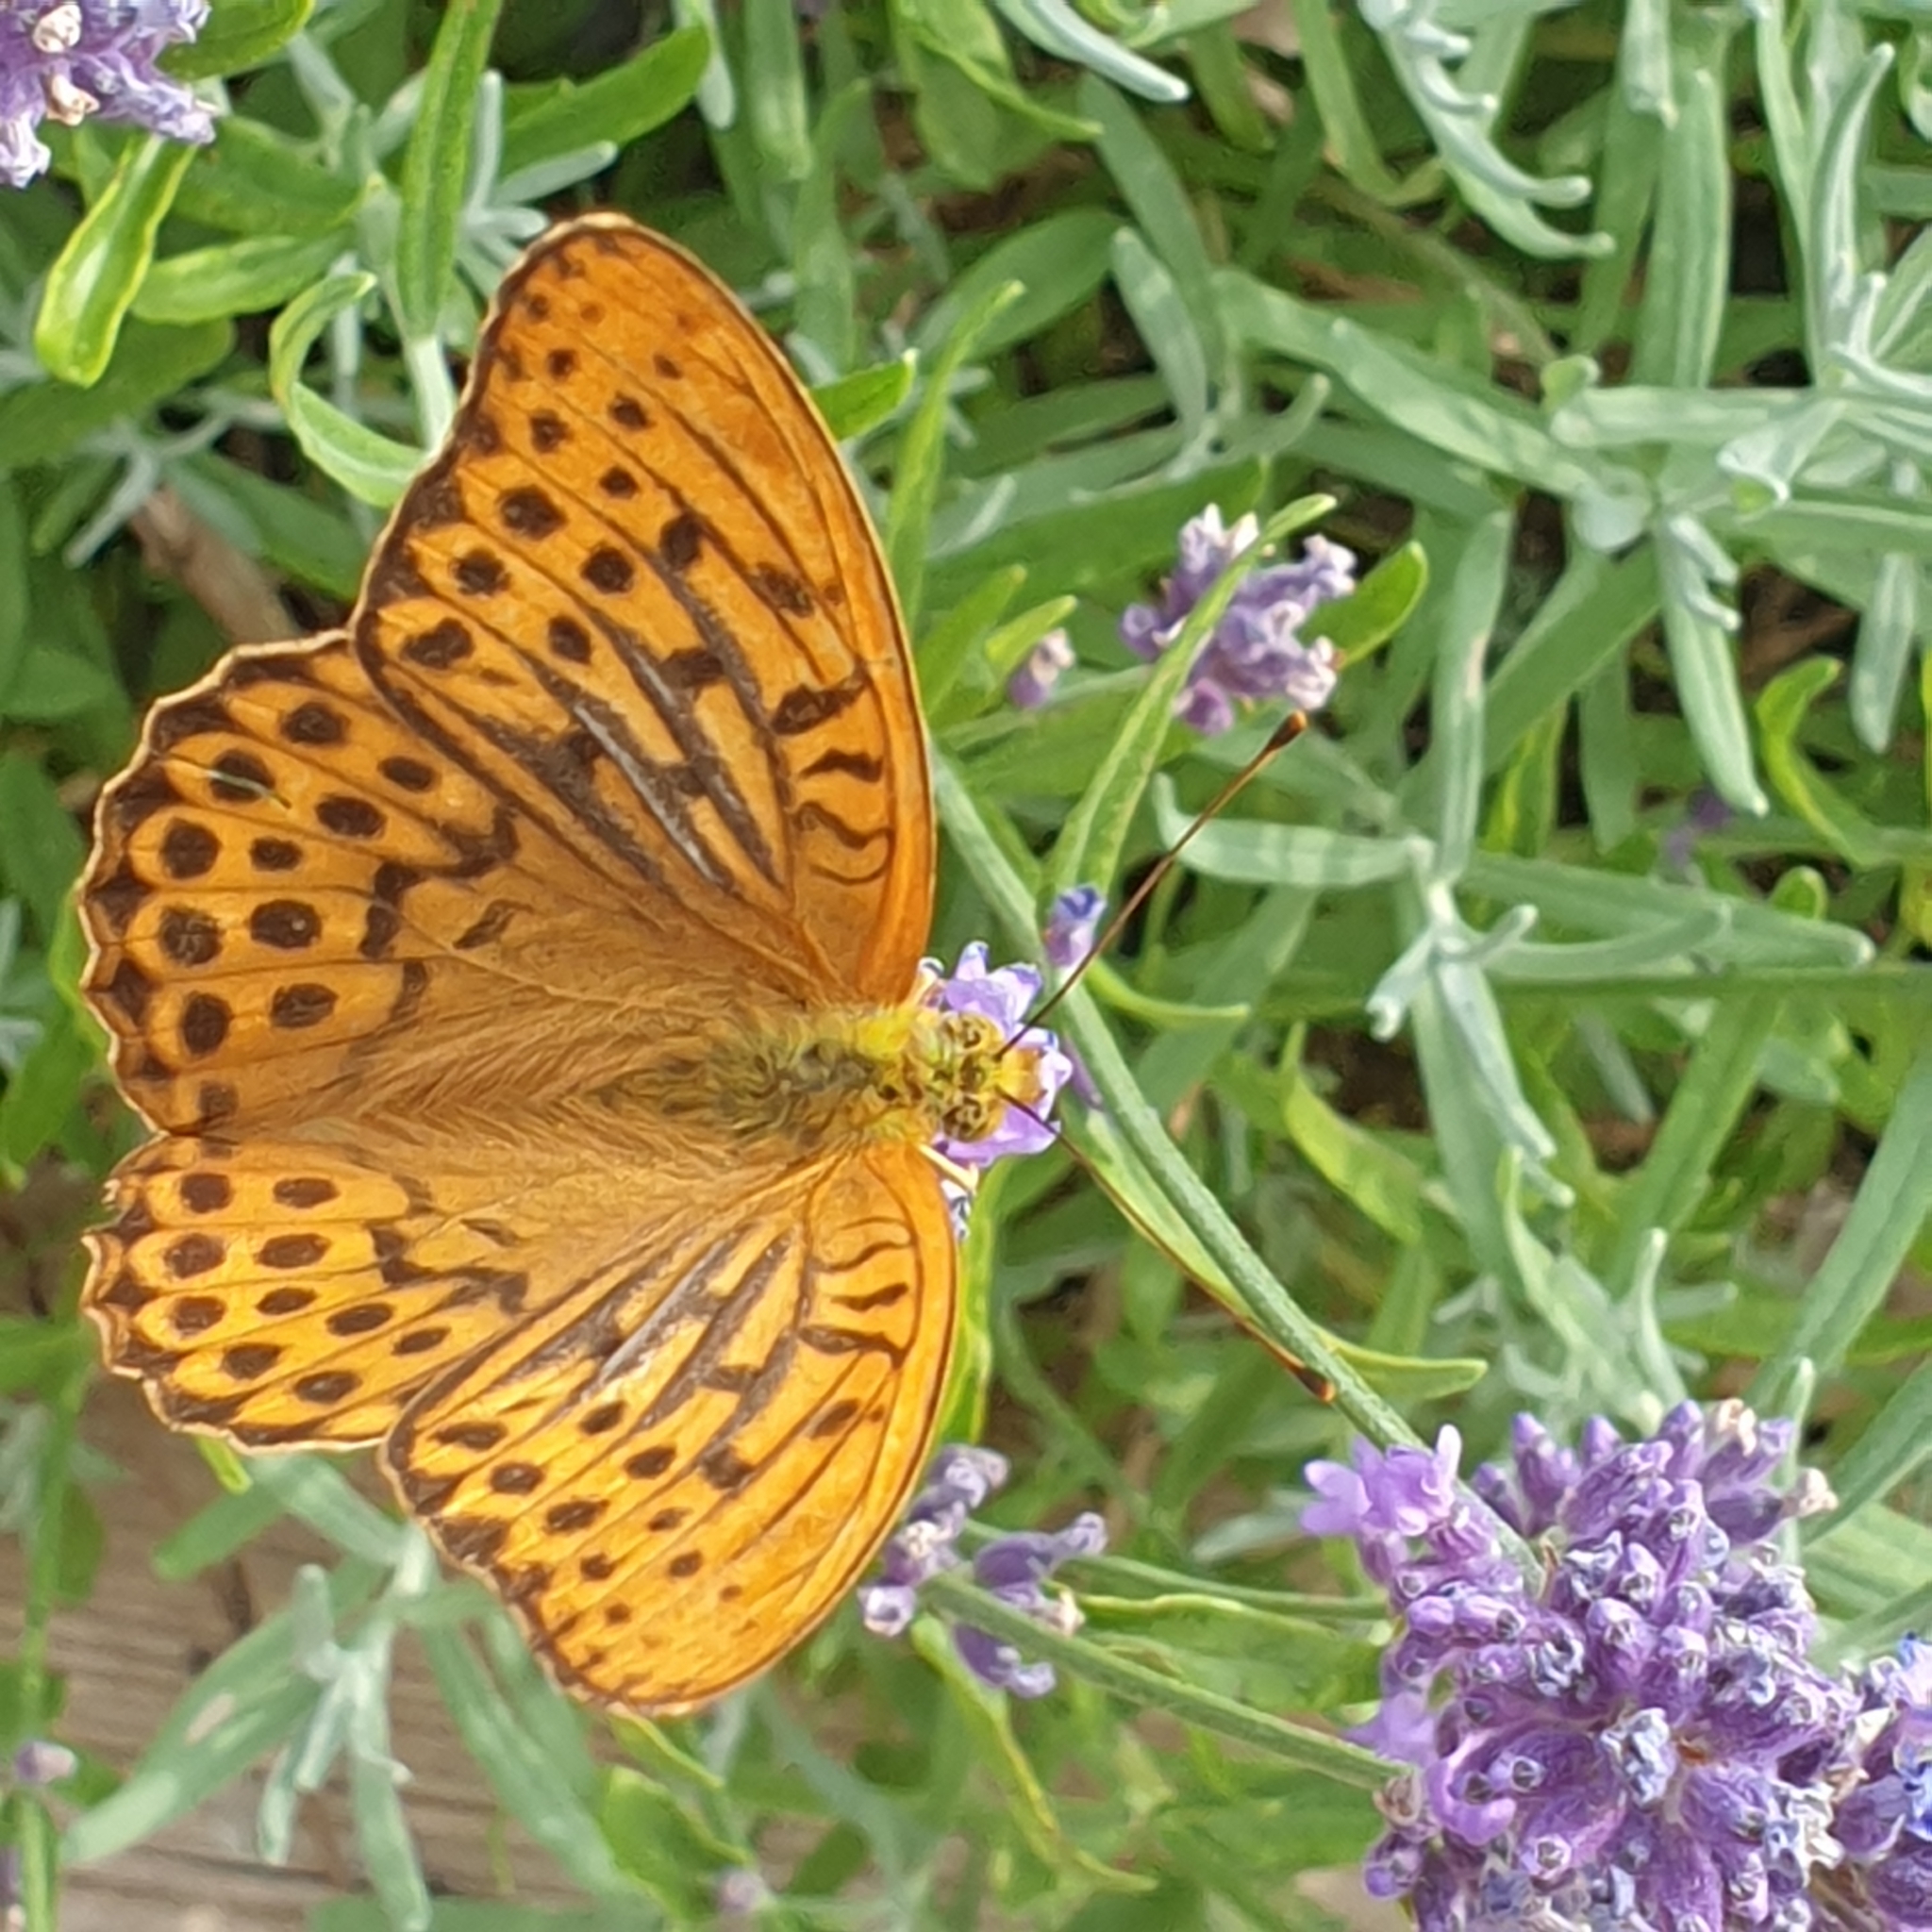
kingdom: Animalia
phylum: Arthropoda
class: Insecta
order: Lepidoptera
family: Nymphalidae
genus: Argynnis
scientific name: Argynnis paphia
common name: Silver-washed fritillary
